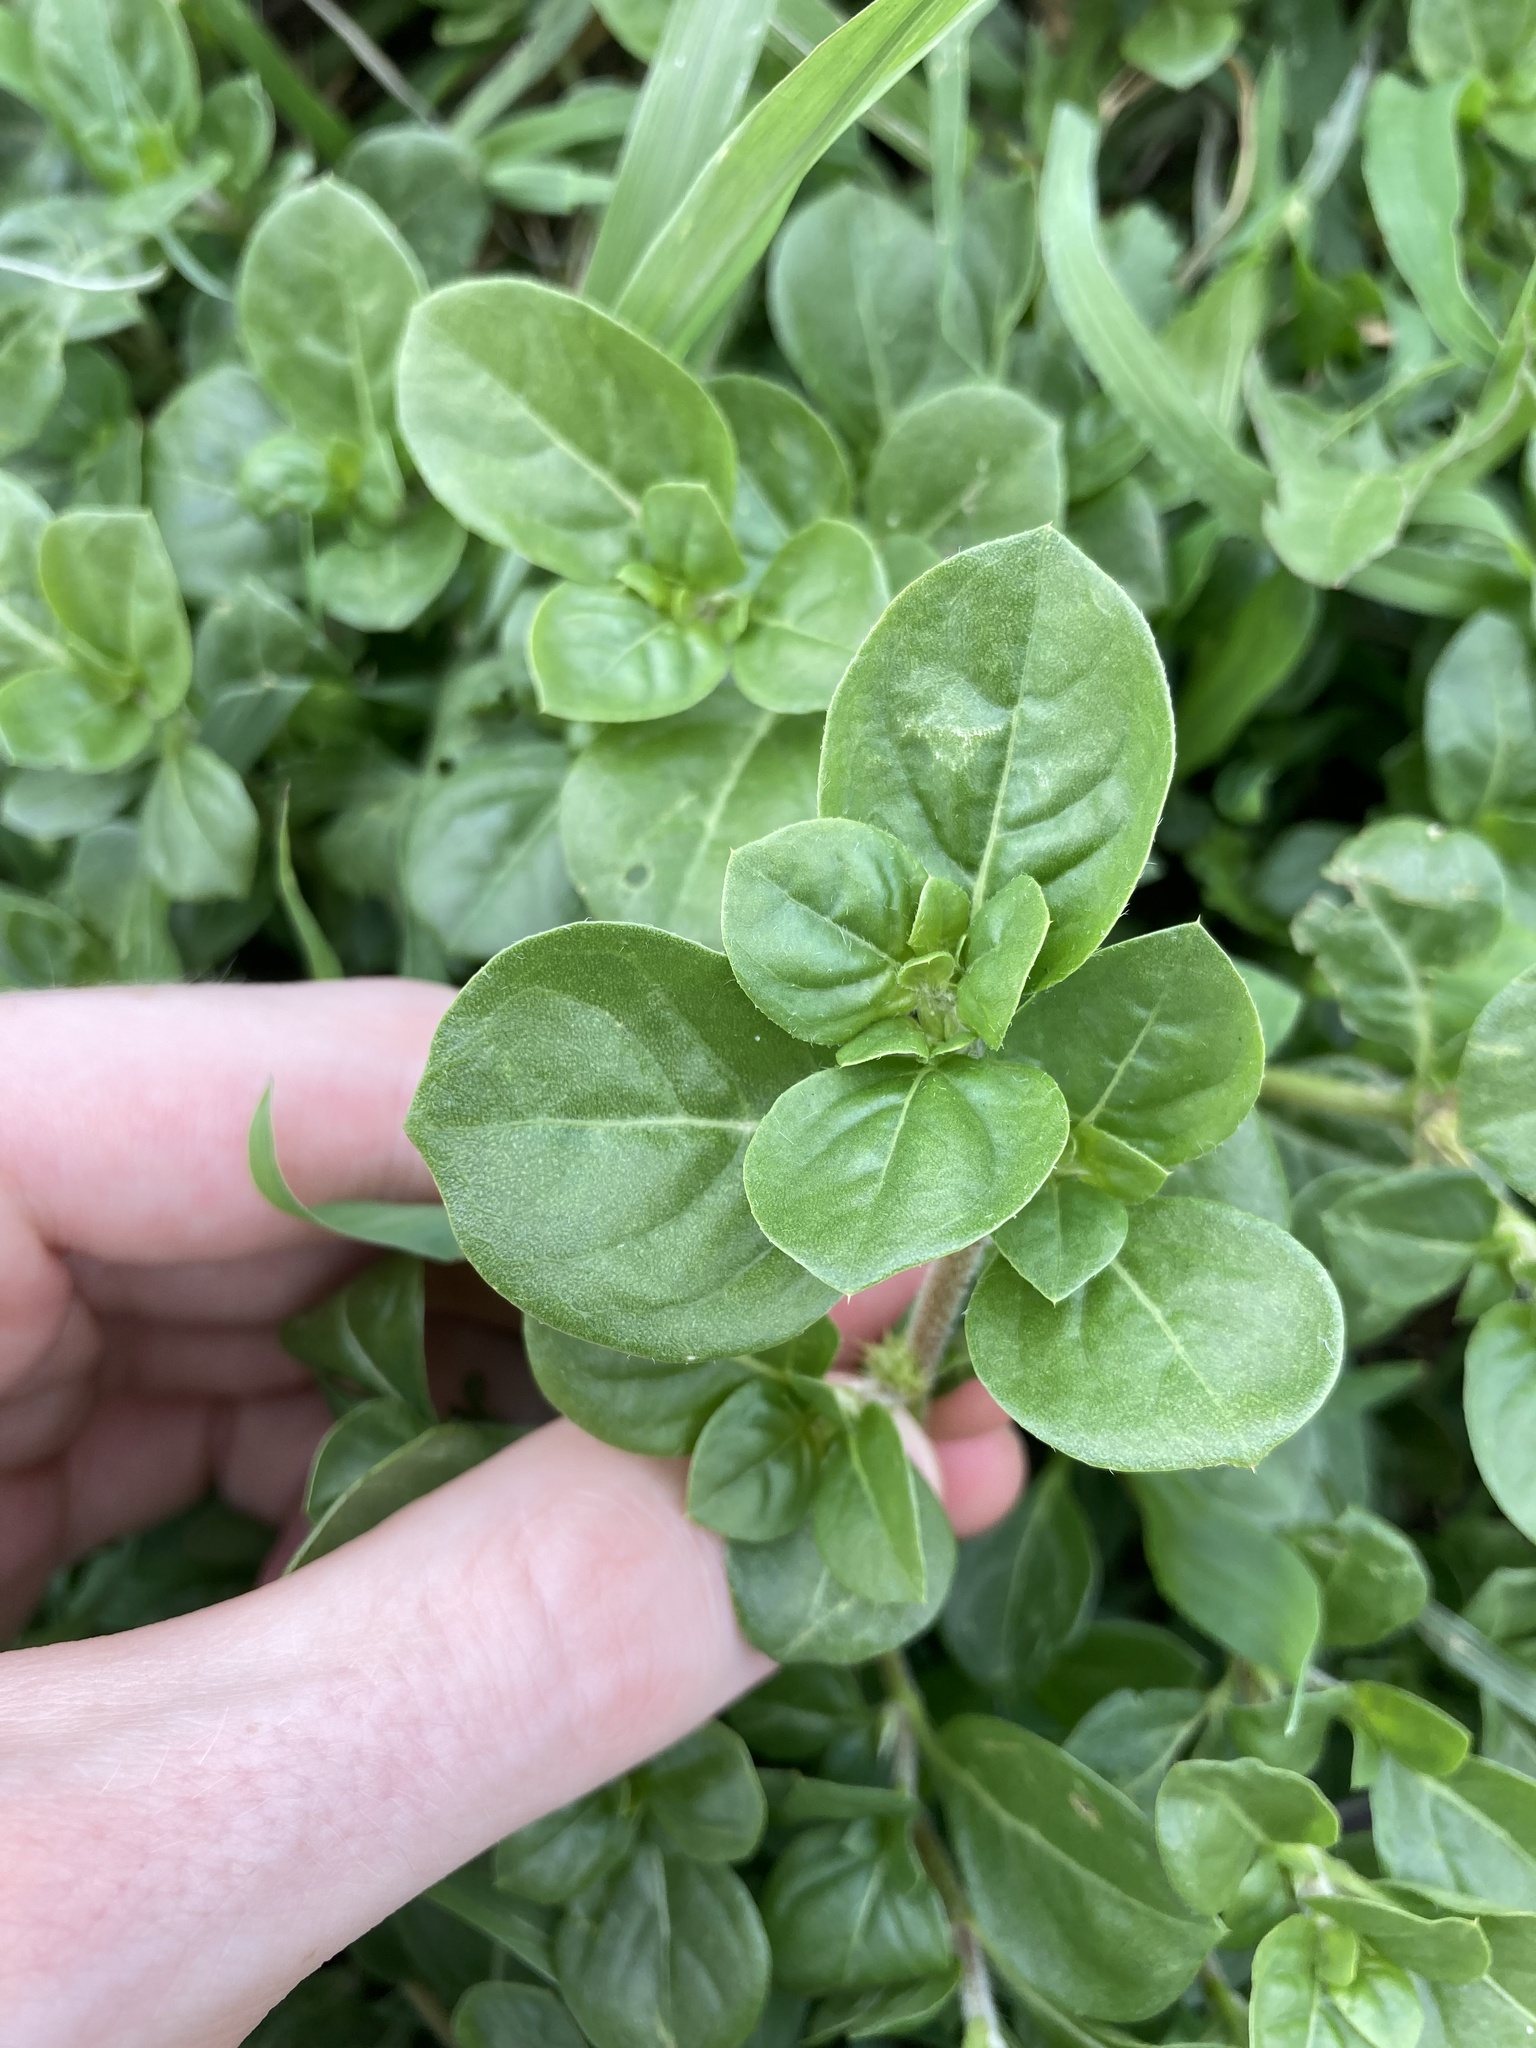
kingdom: Plantae
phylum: Tracheophyta
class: Magnoliopsida
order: Caryophyllales
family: Amaranthaceae
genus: Alternanthera
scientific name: Alternanthera pungens
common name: Khakiweed
